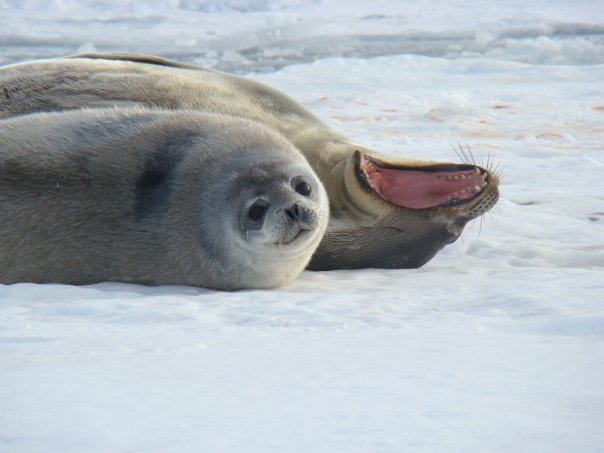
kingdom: Animalia
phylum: Chordata
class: Mammalia
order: Carnivora
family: Phocidae
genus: Leptonychotes
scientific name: Leptonychotes weddellii
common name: Weddell seal
